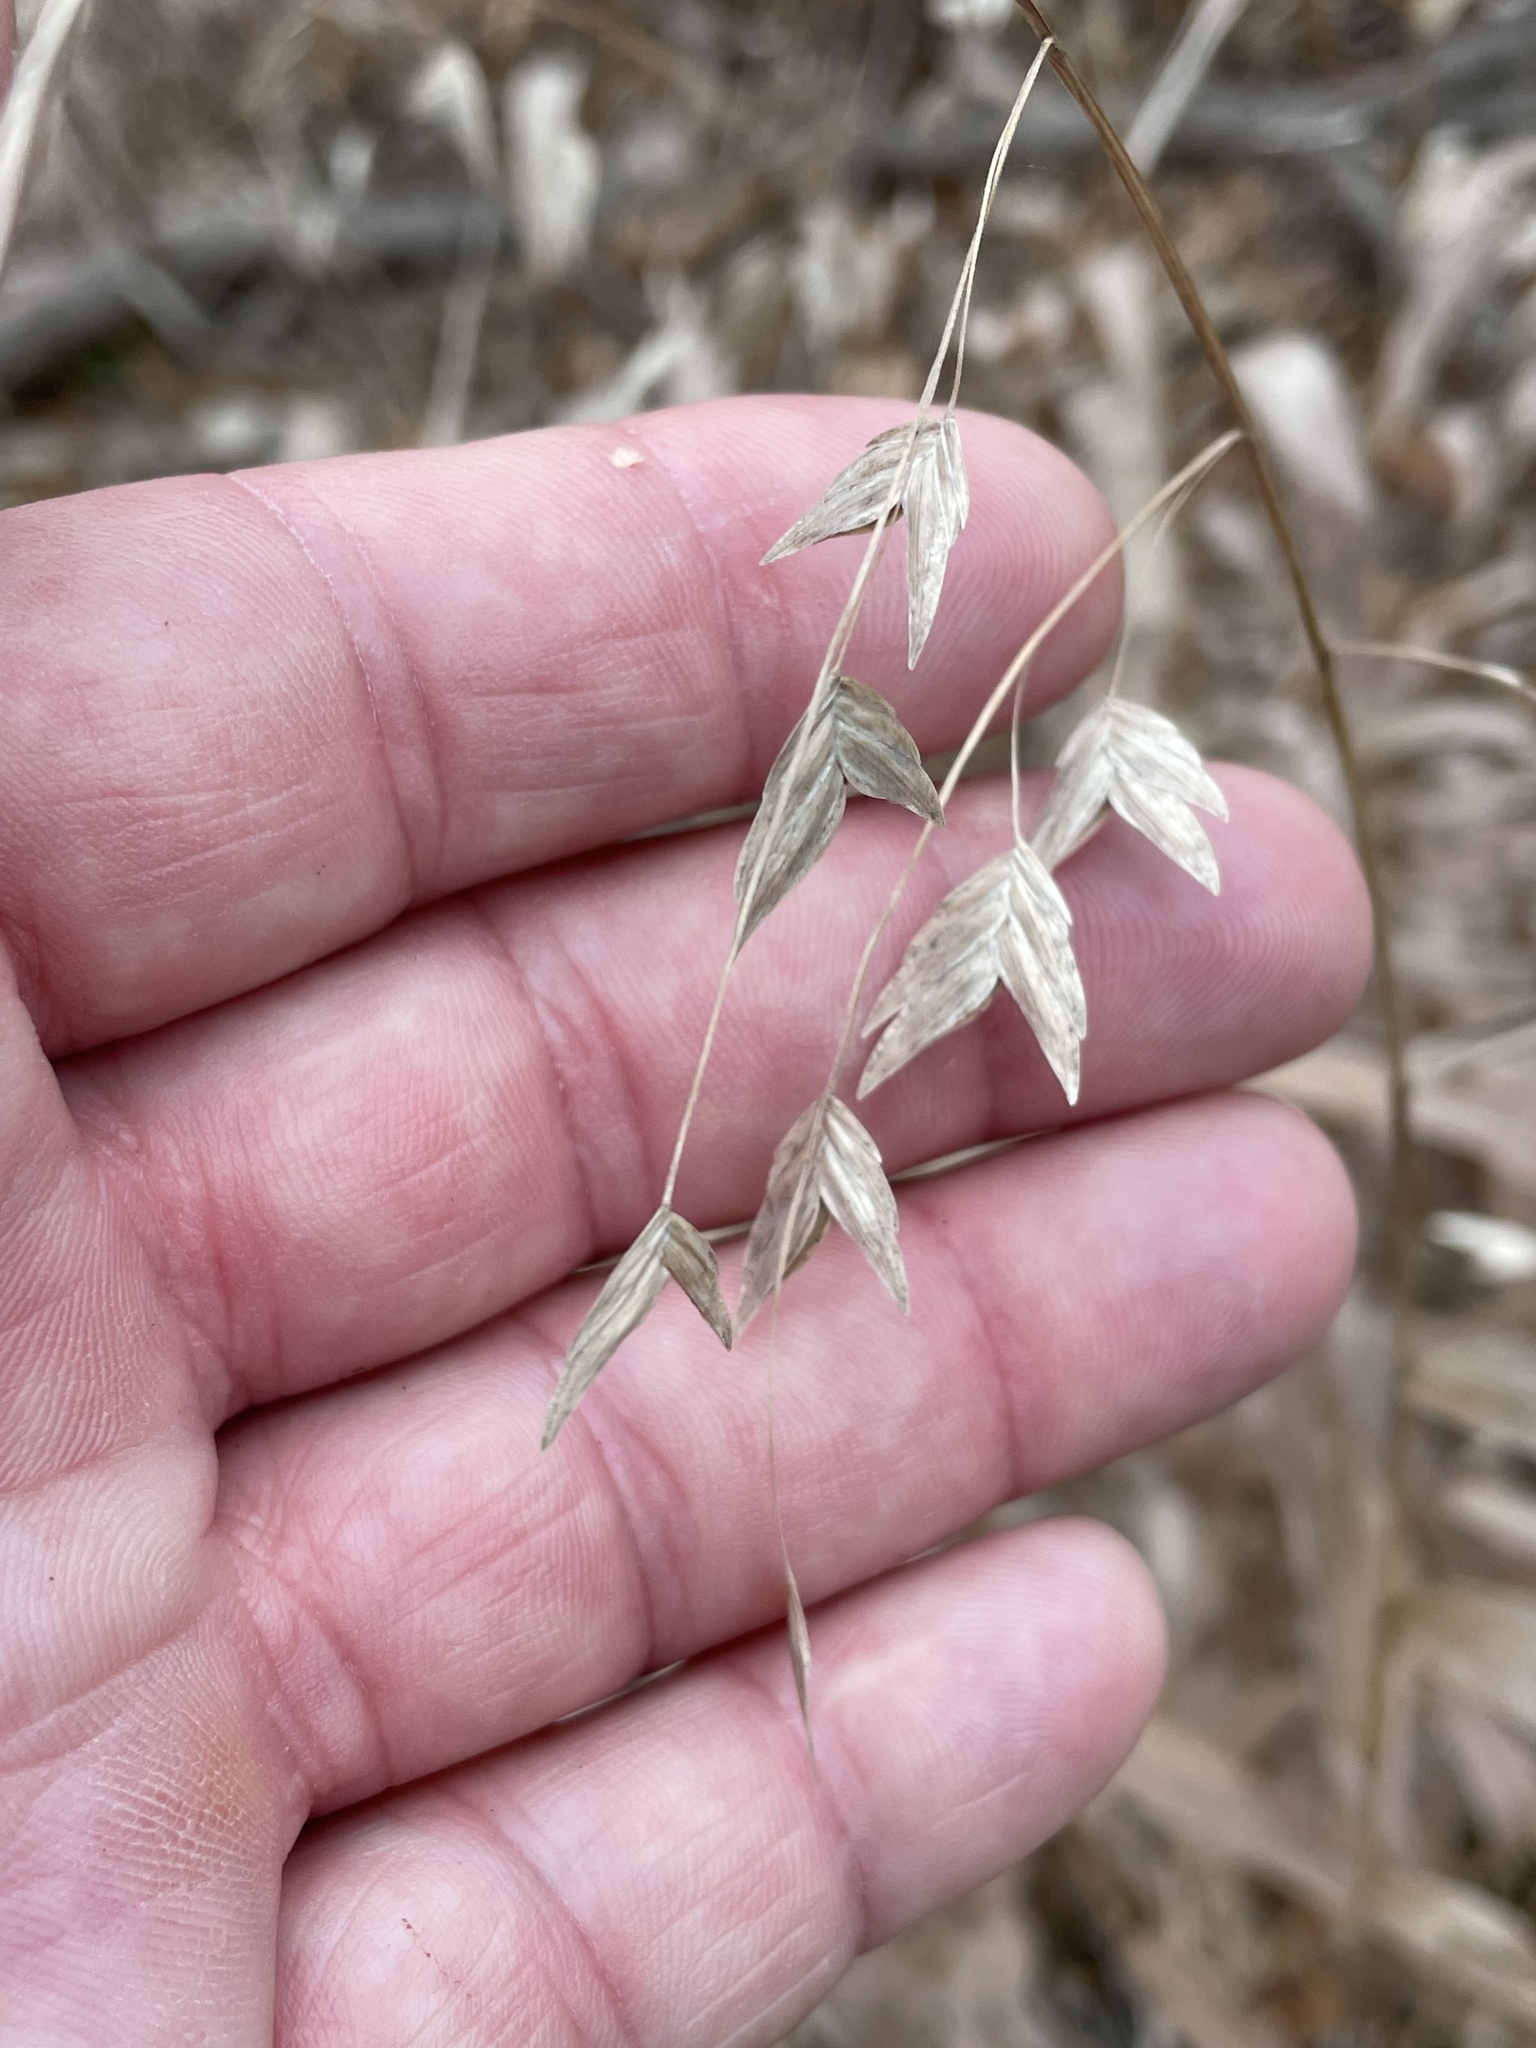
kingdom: Plantae
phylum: Tracheophyta
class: Liliopsida
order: Poales
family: Poaceae
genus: Chasmanthium
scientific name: Chasmanthium latifolium
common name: Broad-leaved chasmanthium
